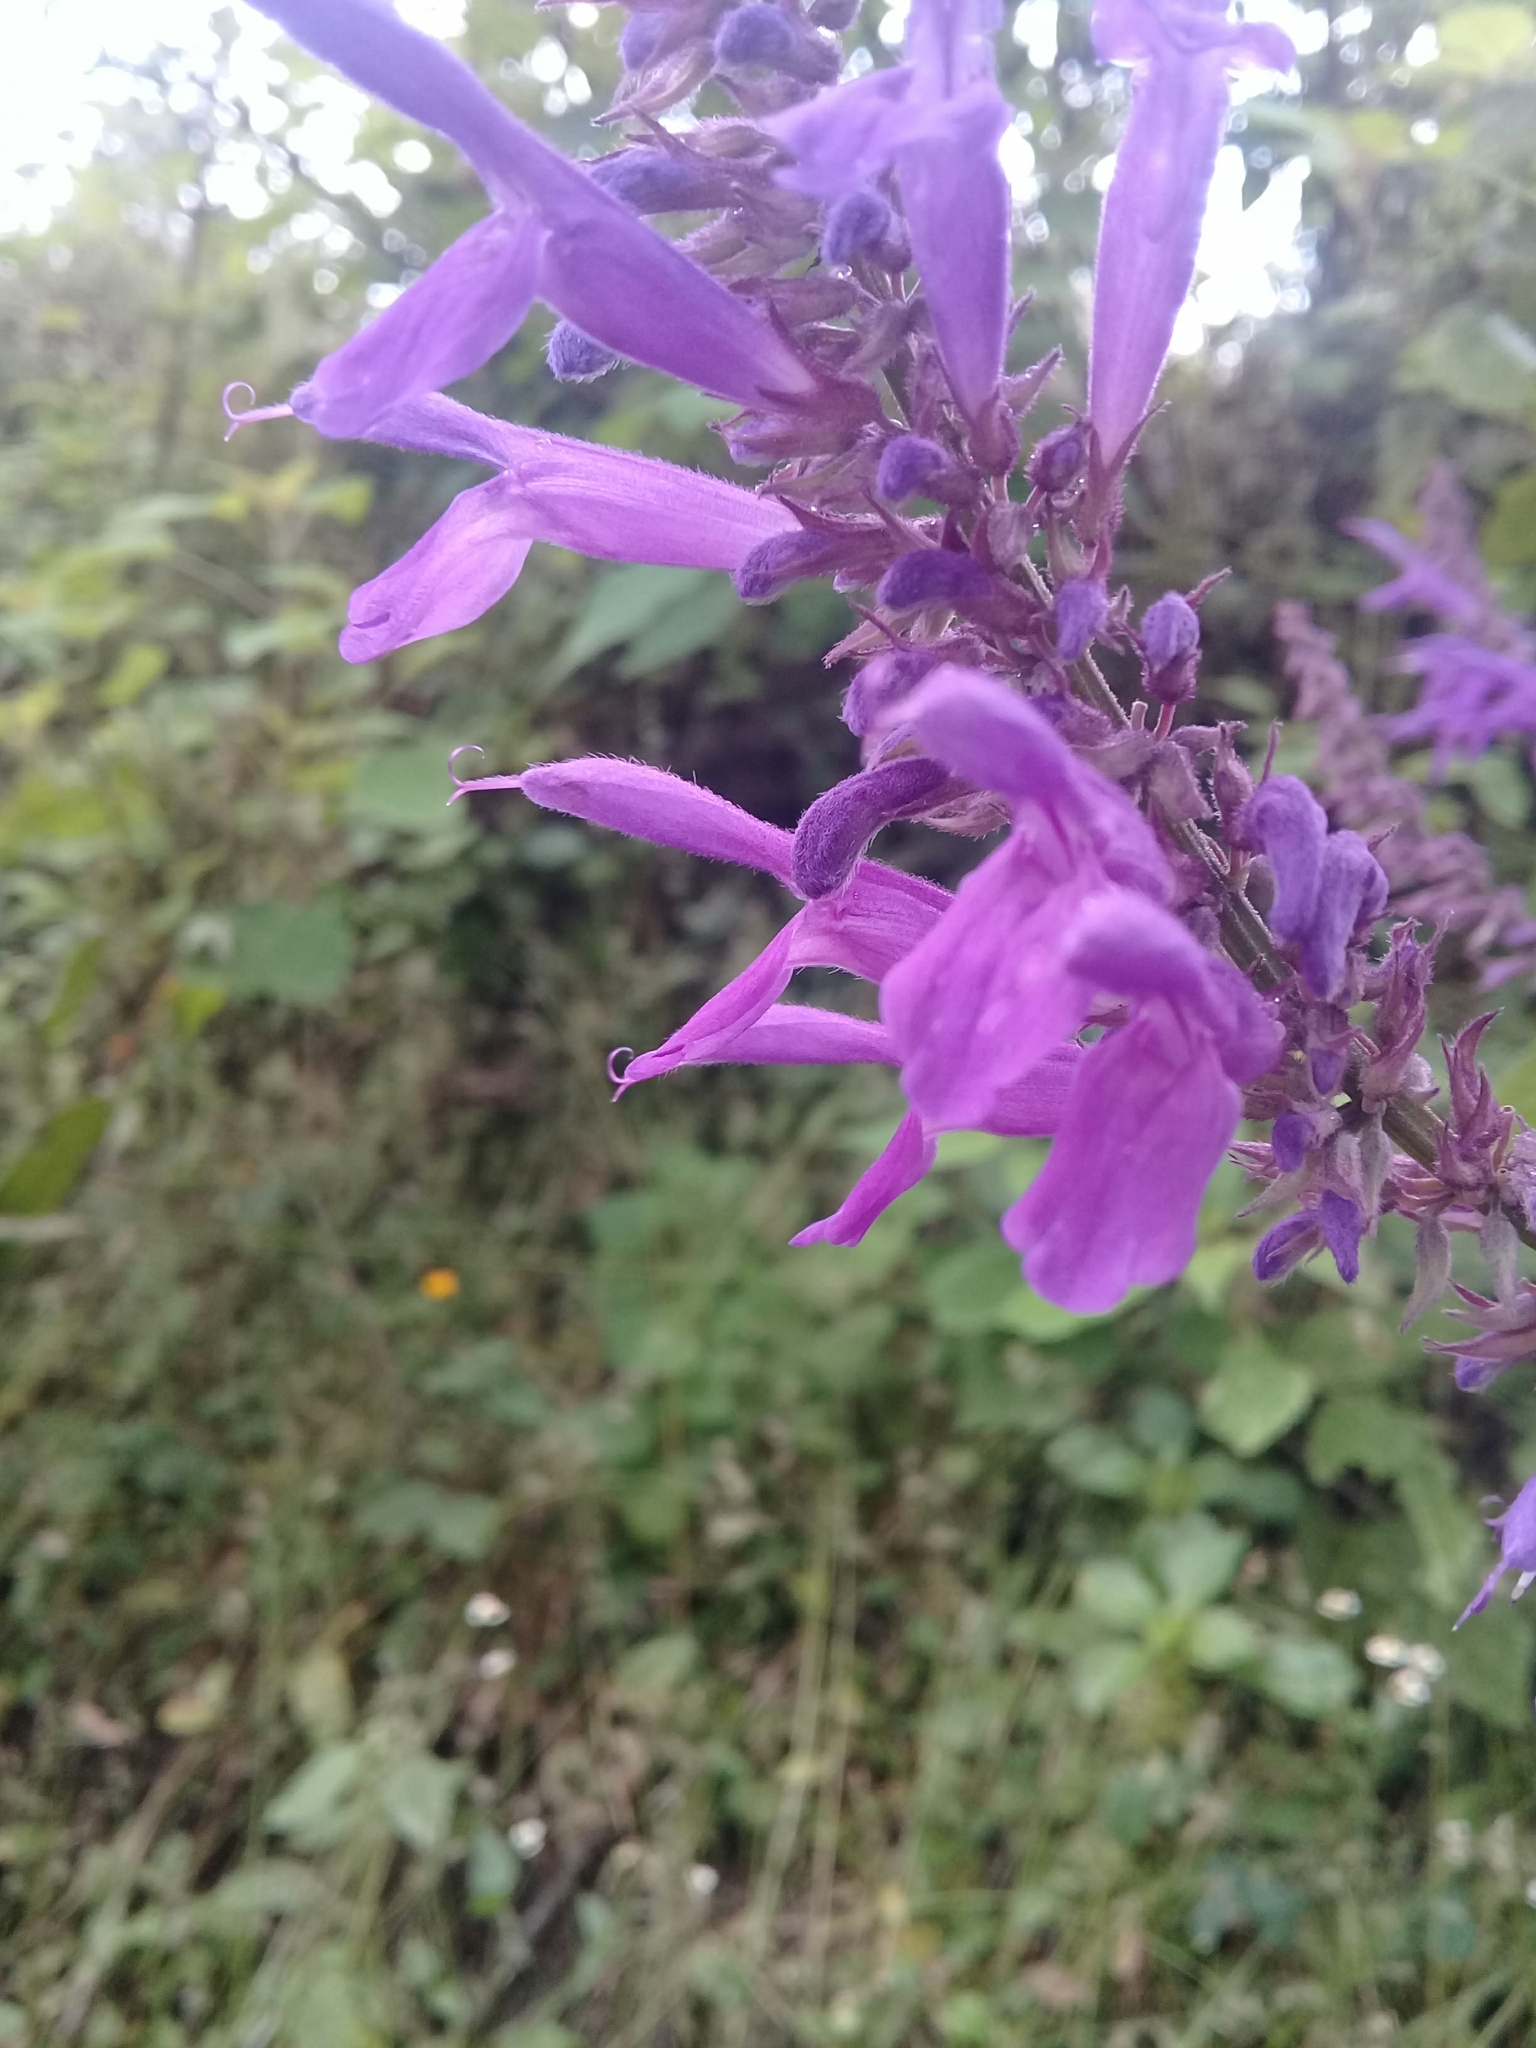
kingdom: Plantae
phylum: Tracheophyta
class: Magnoliopsida
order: Lamiales
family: Lamiaceae
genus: Salvia
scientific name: Salvia purpurea
